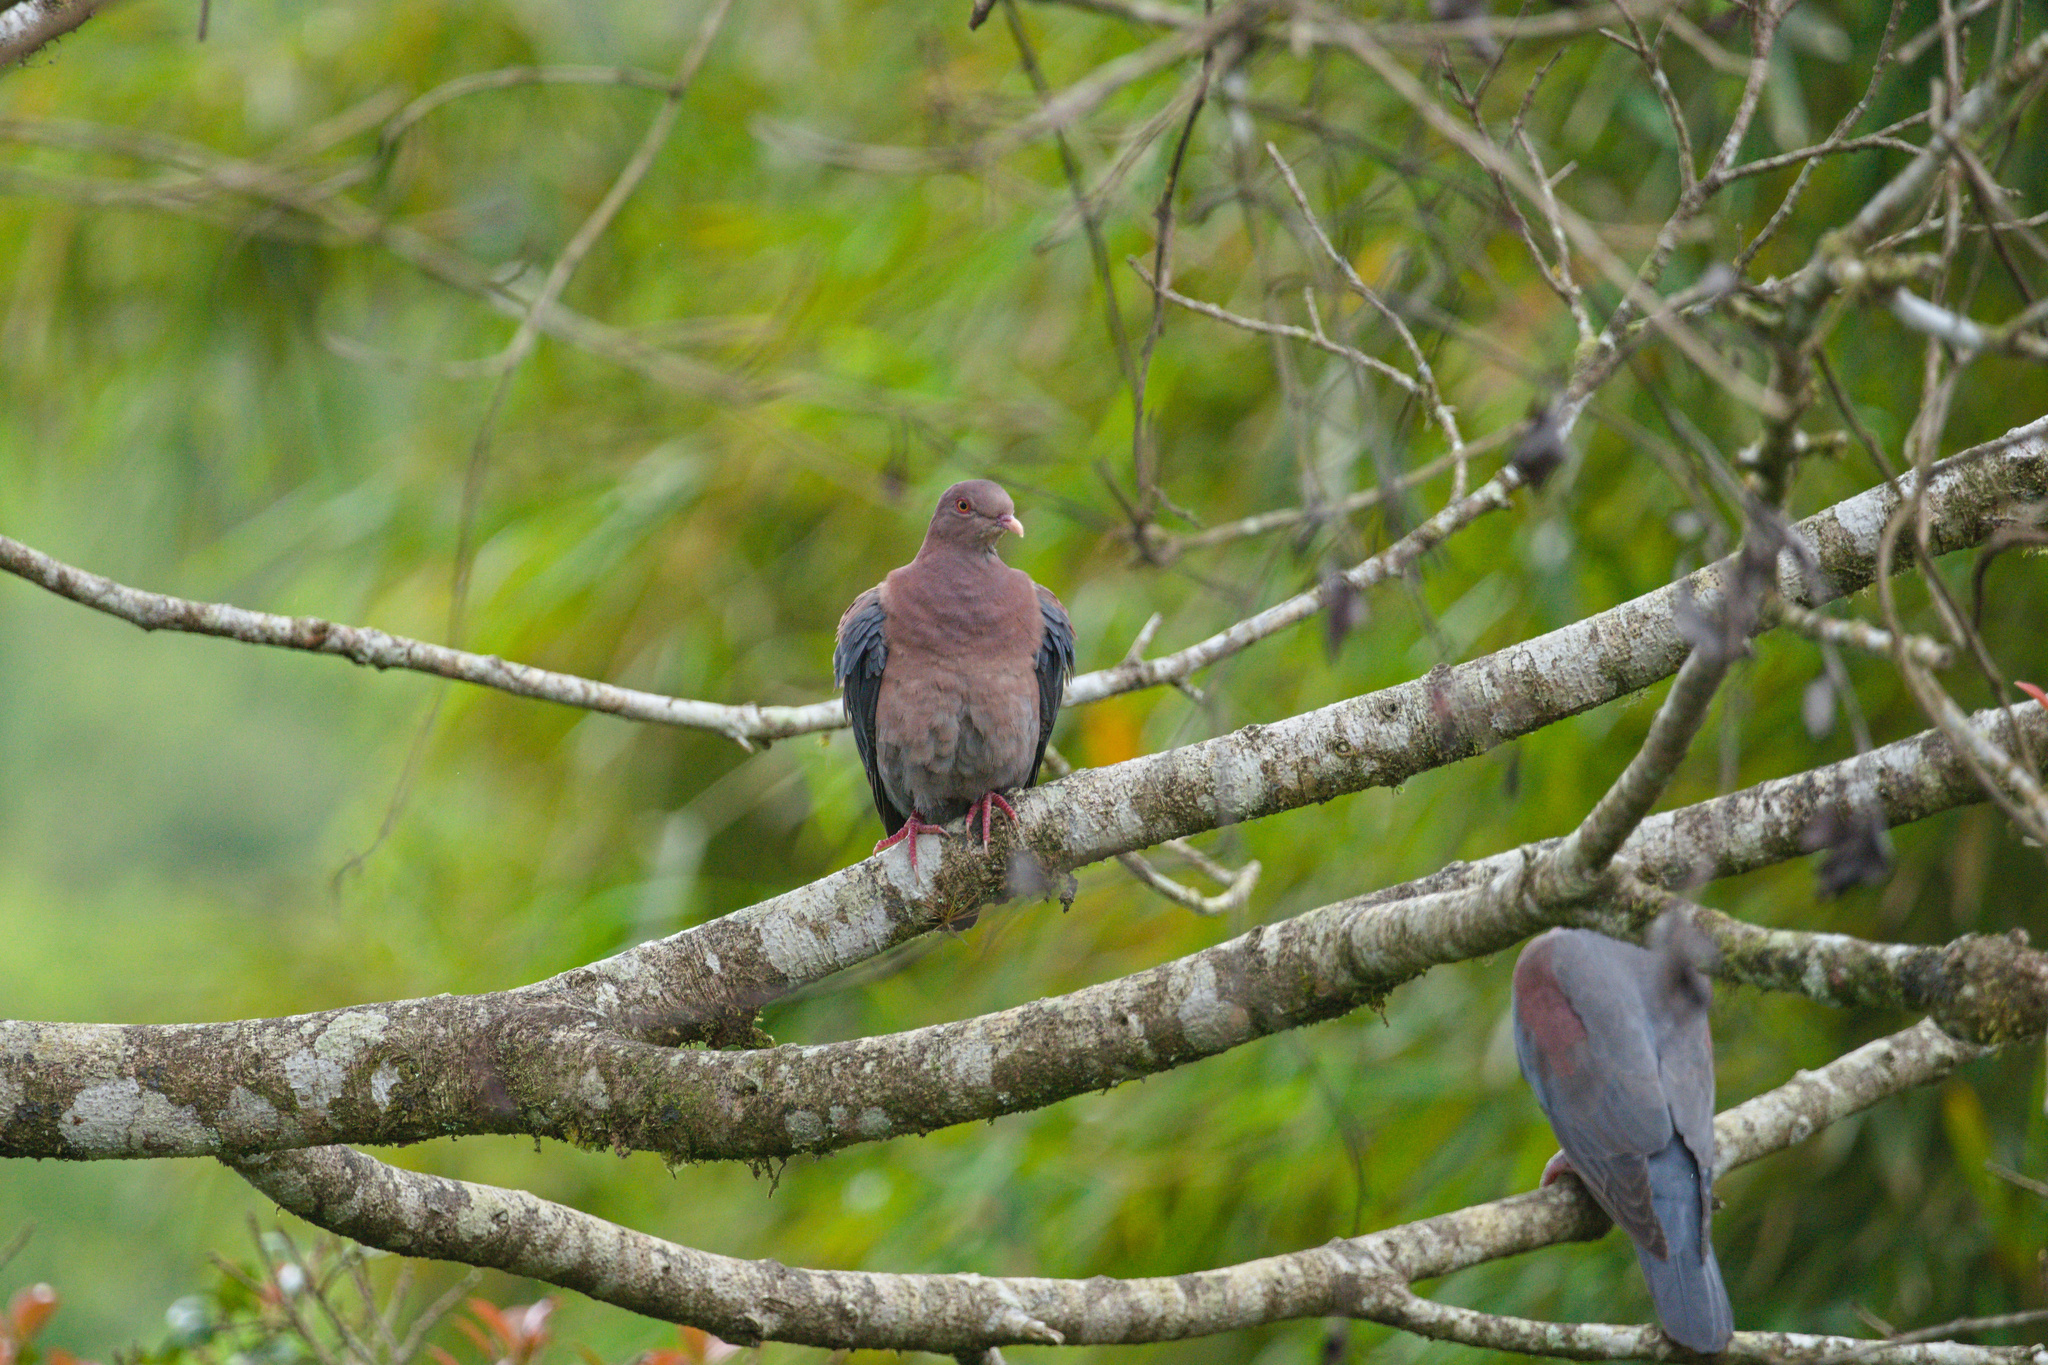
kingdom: Animalia
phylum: Chordata
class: Aves
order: Columbiformes
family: Columbidae
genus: Patagioenas
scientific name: Patagioenas flavirostris
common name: Red-billed pigeon
